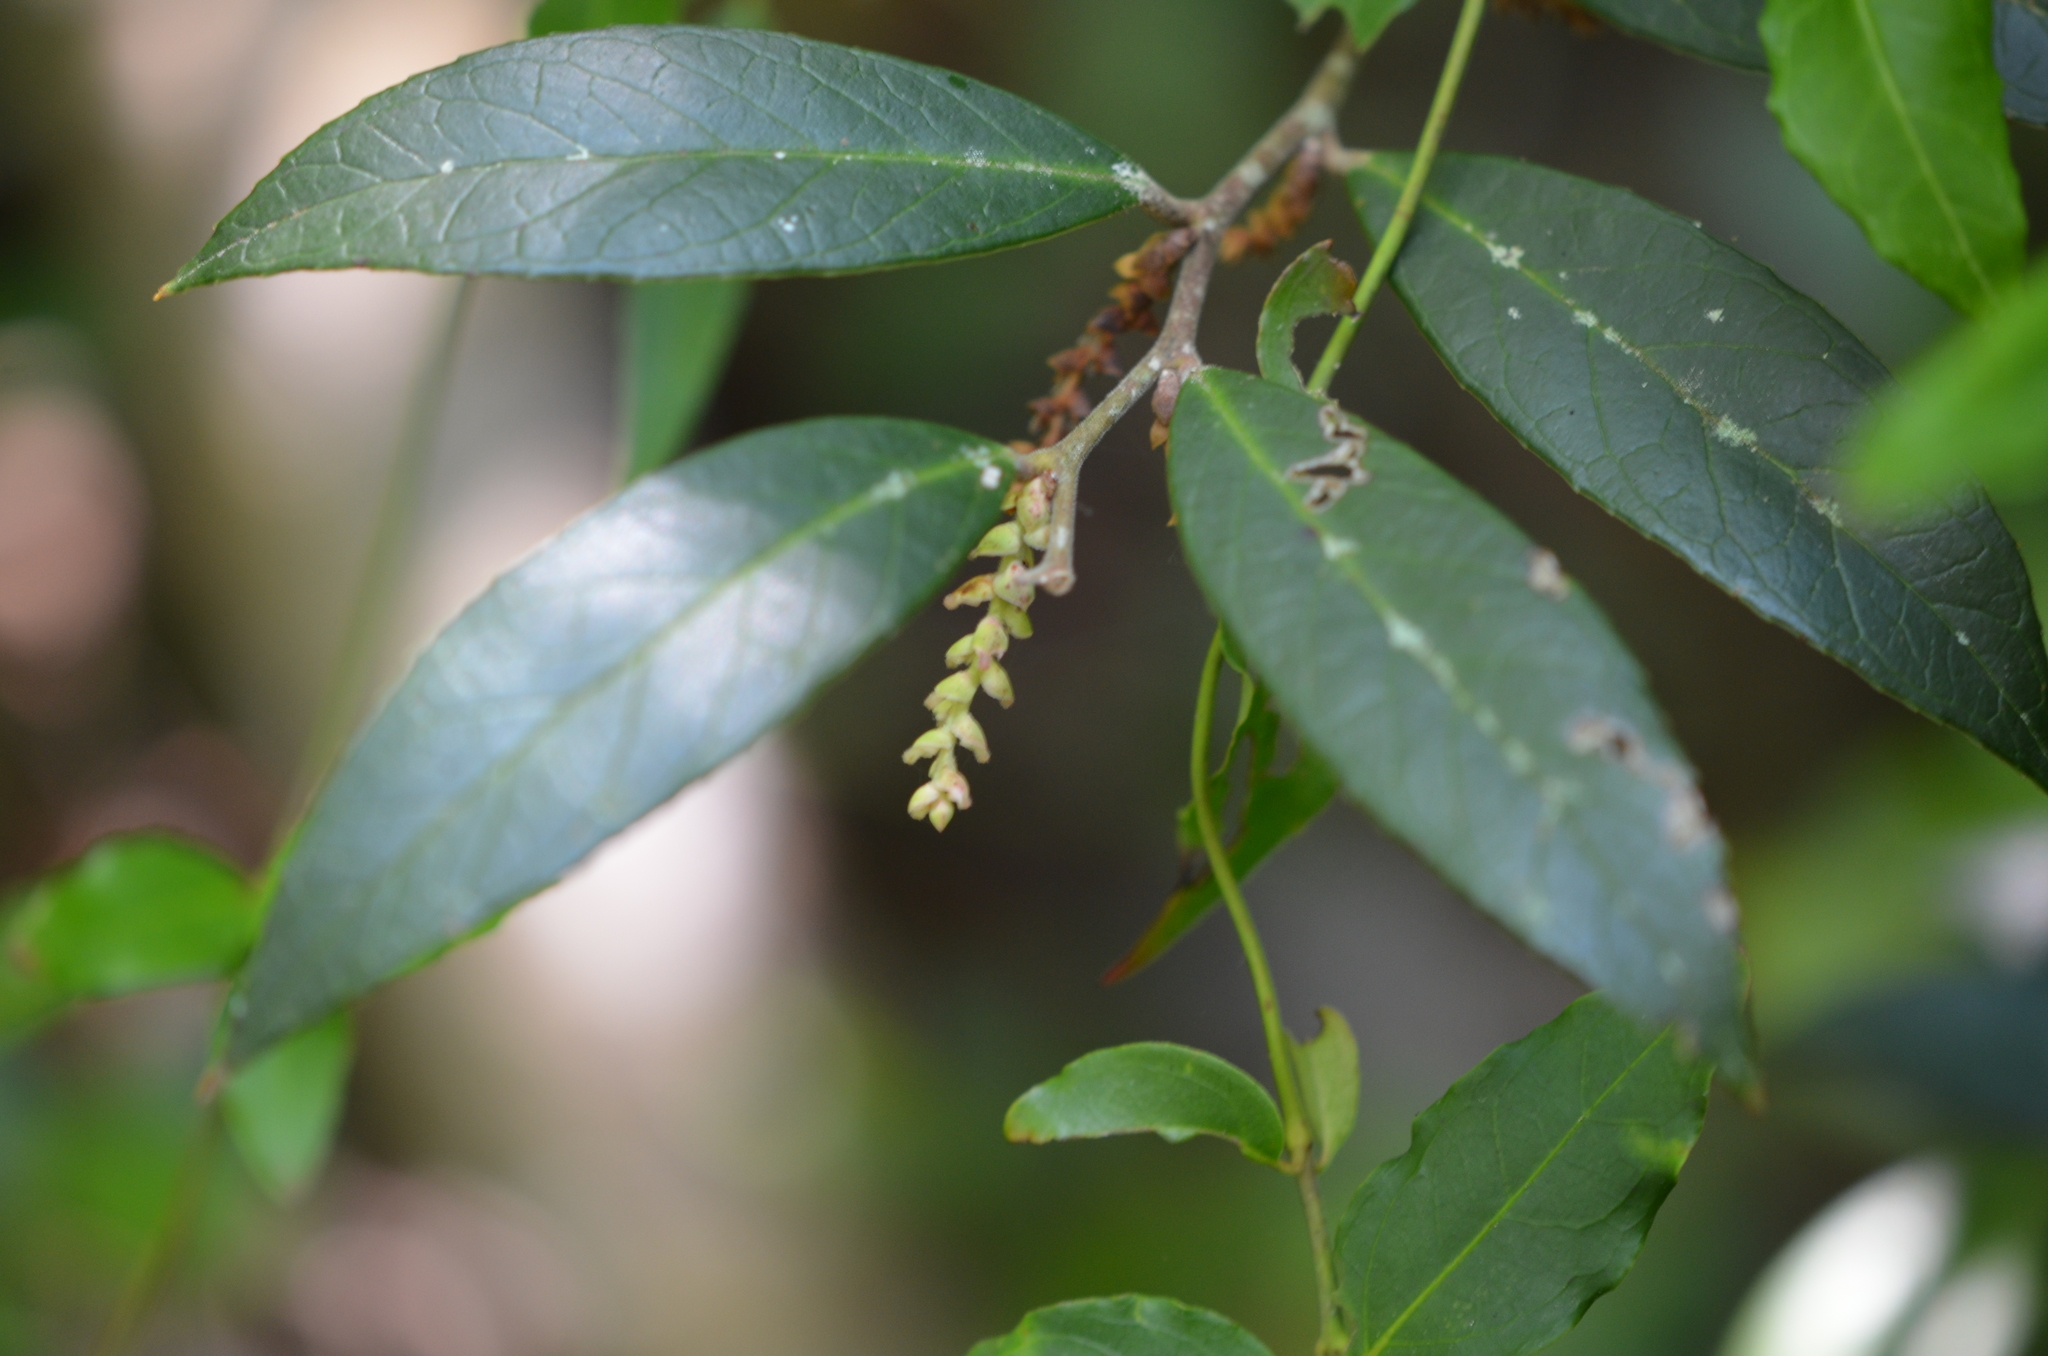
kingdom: Plantae
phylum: Tracheophyta
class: Magnoliopsida
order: Ericales
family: Ericaceae
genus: Leucothoe
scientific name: Leucothoe axillaris
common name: Leucothoe
